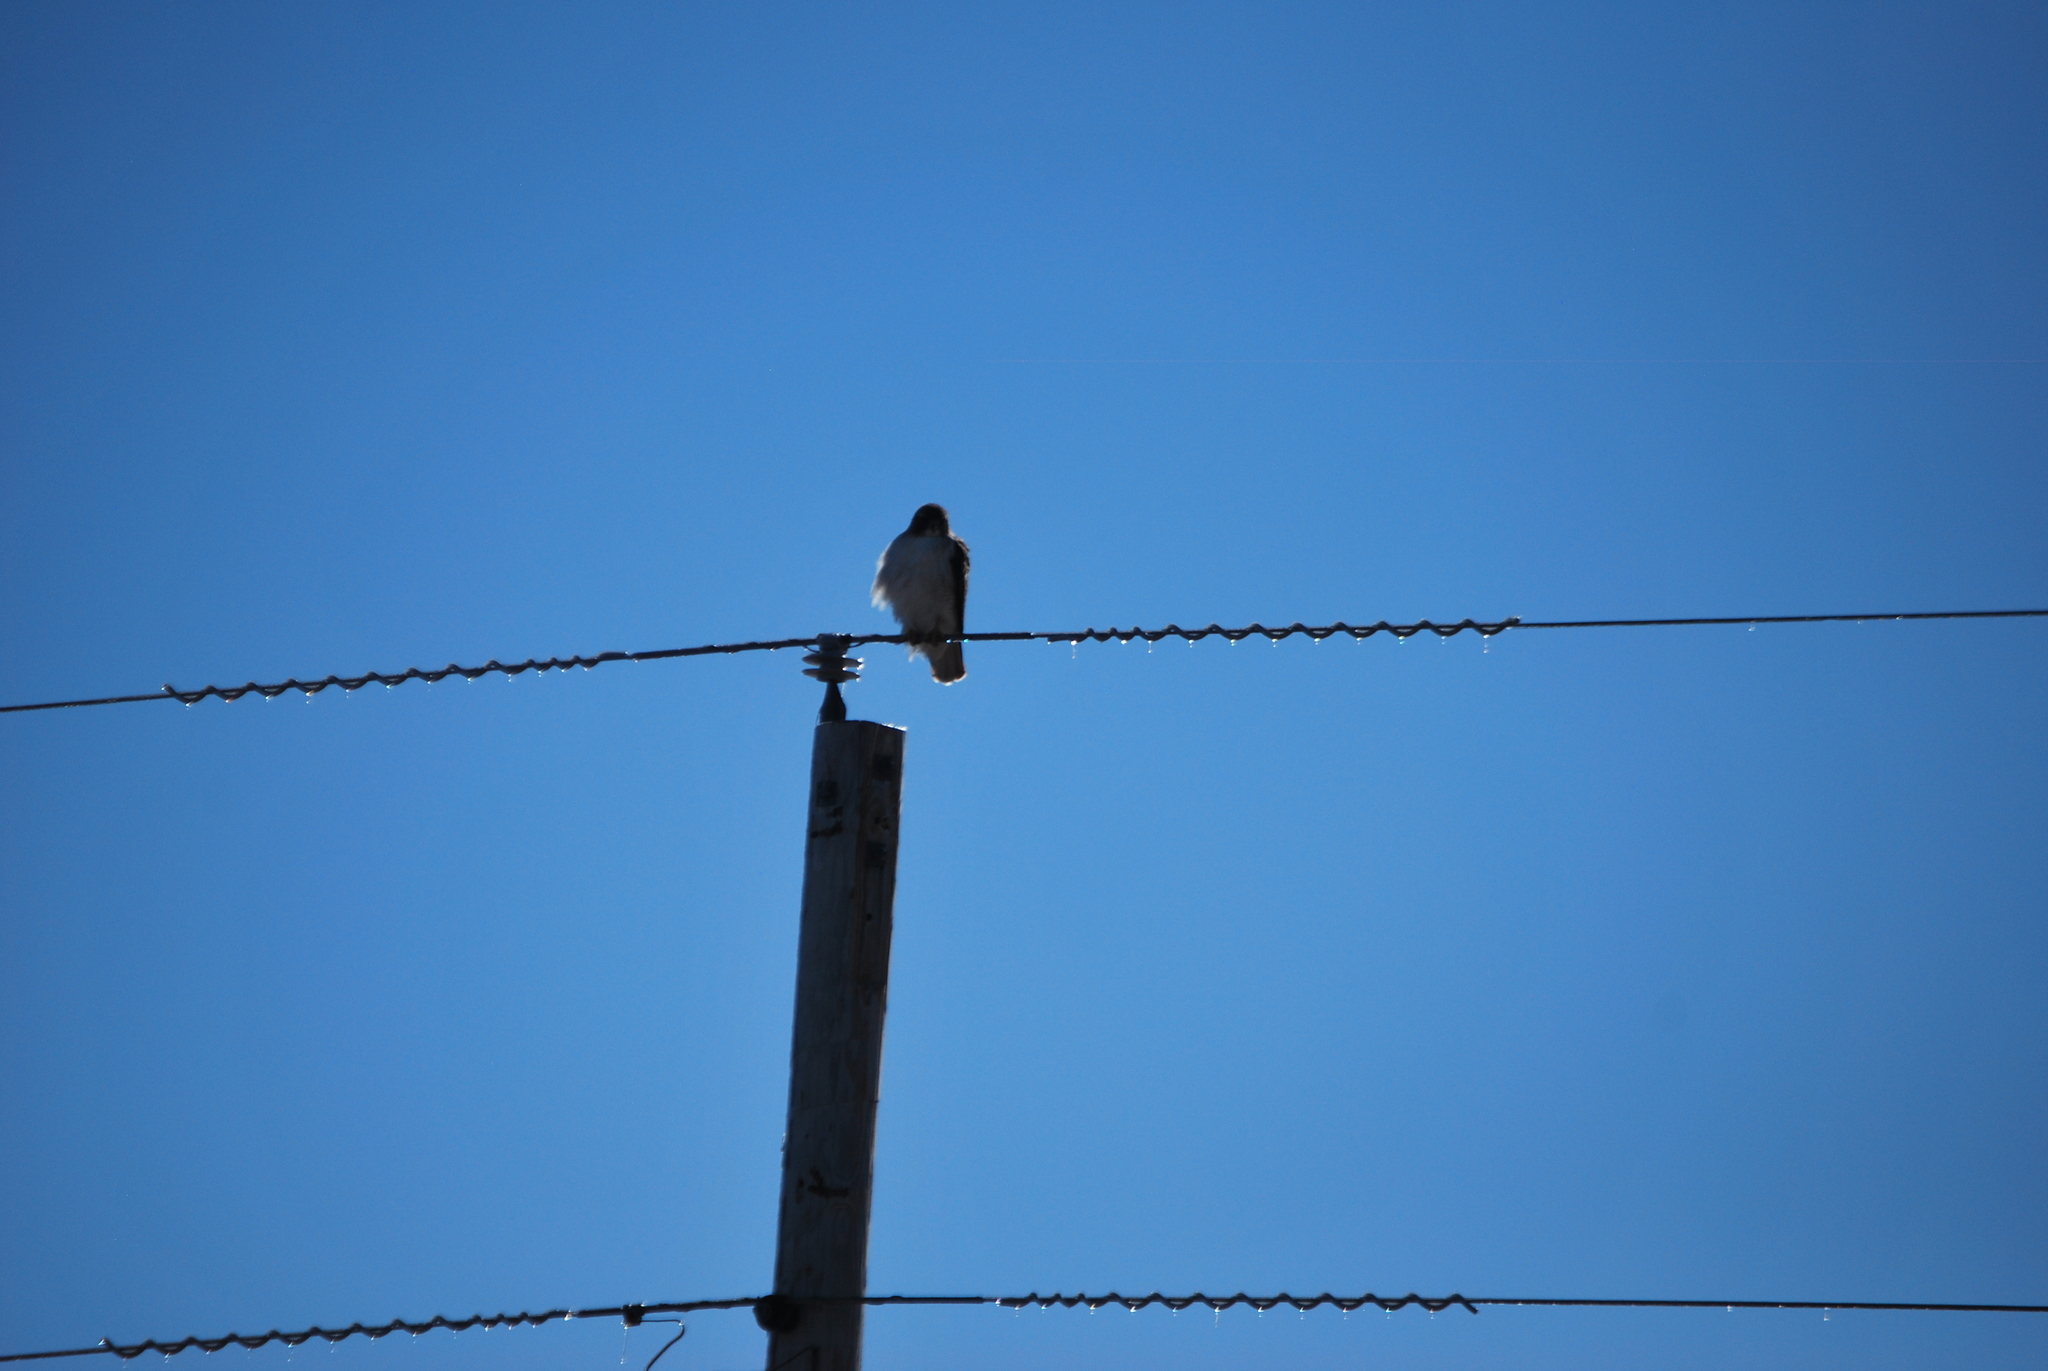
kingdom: Animalia
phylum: Chordata
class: Aves
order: Accipitriformes
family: Accipitridae
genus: Buteo
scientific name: Buteo jamaicensis
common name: Red-tailed hawk
